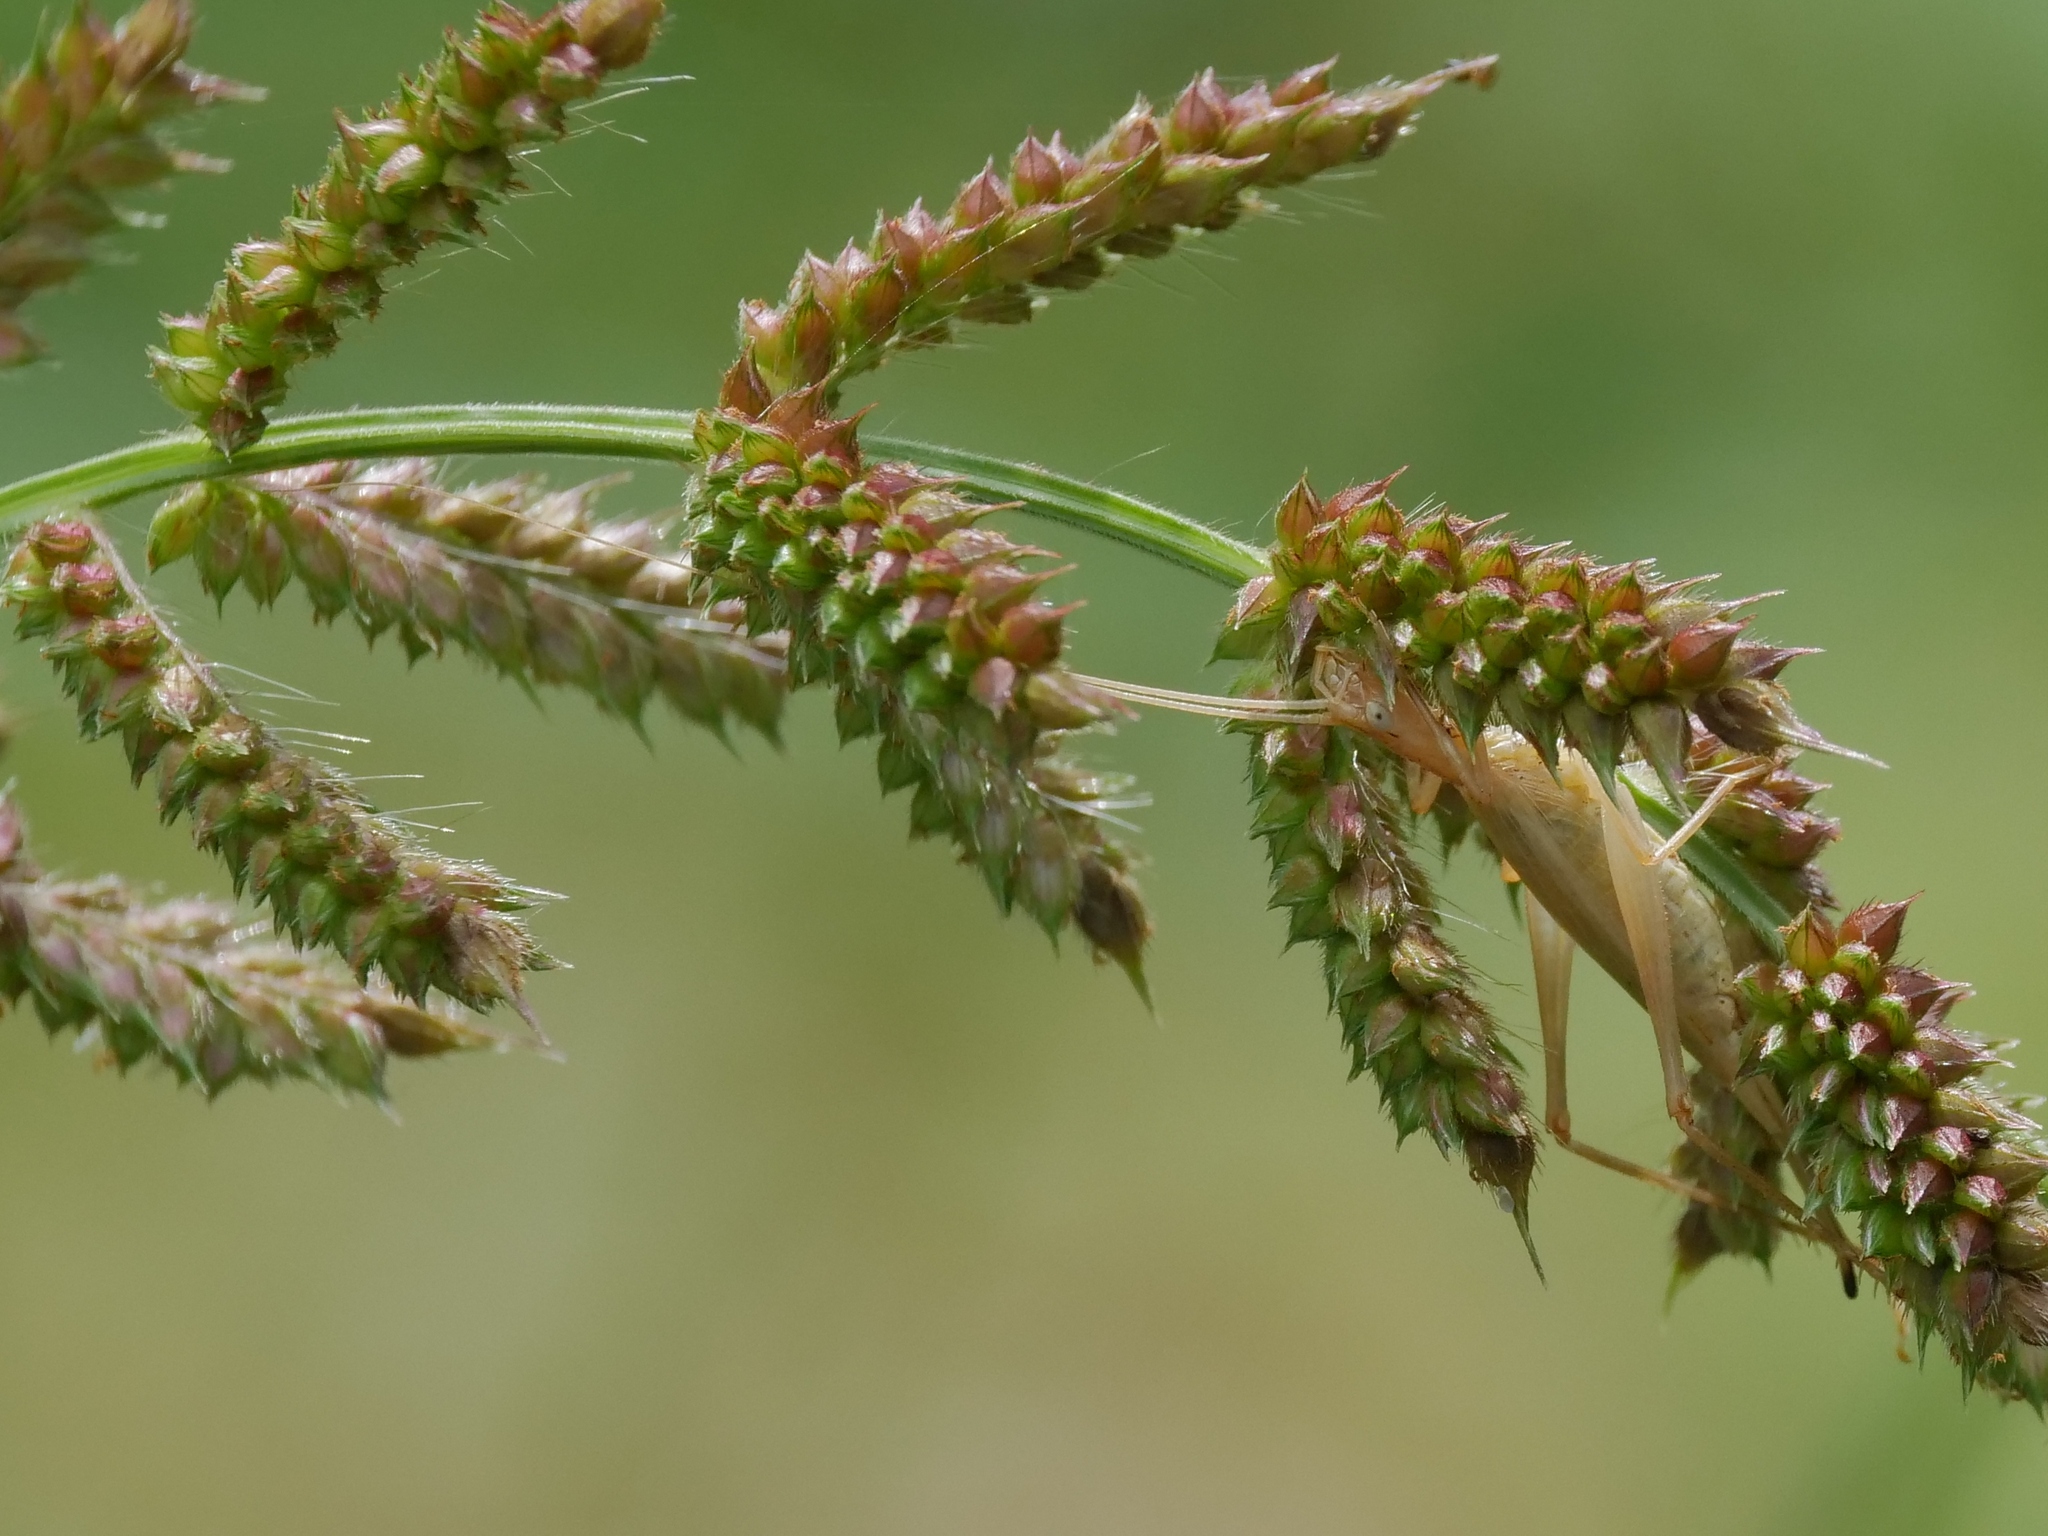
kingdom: Animalia
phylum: Arthropoda
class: Insecta
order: Orthoptera
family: Gryllidae
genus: Oecanthus
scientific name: Oecanthus pellucens
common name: Tree-cricket
